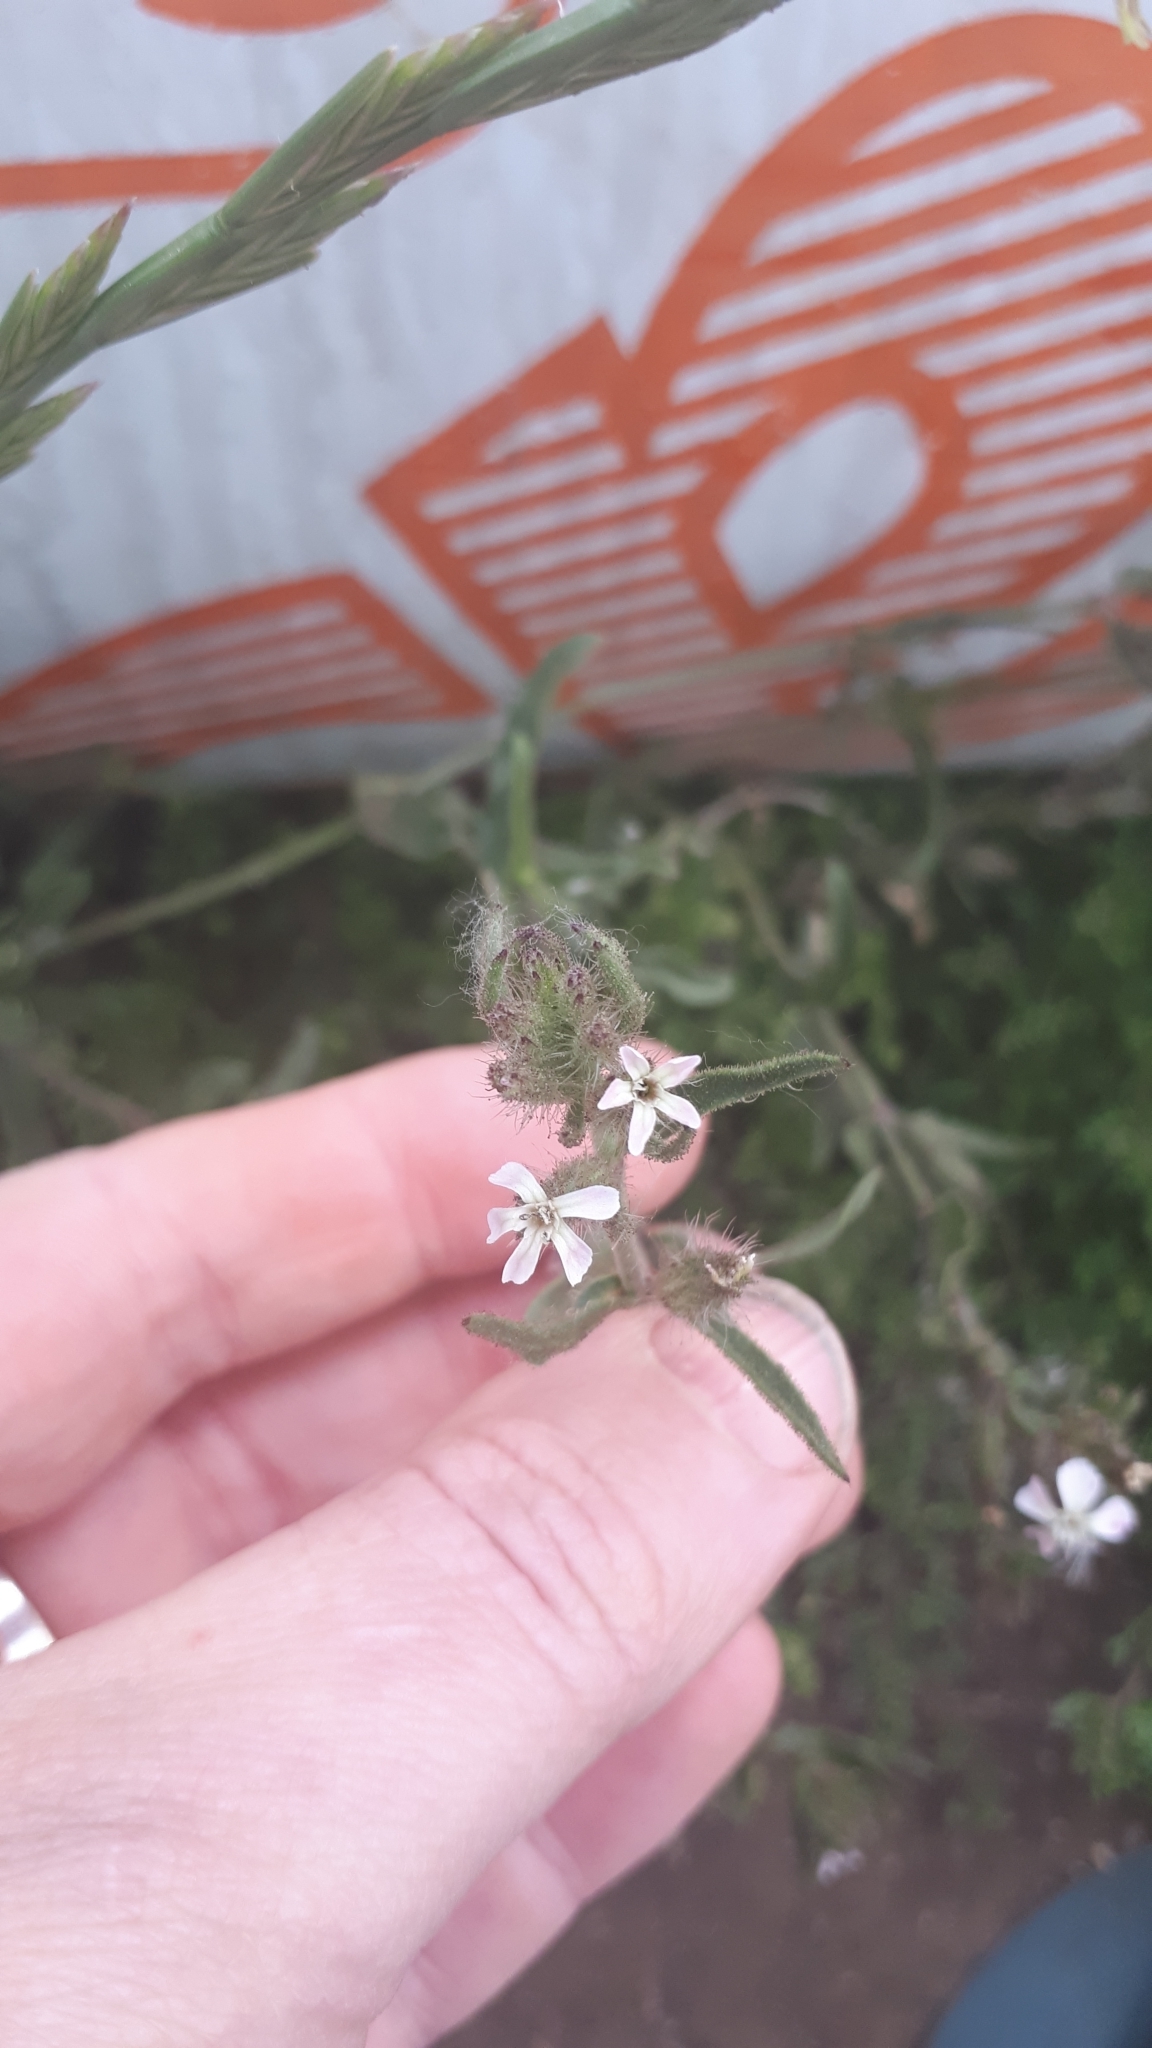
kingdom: Plantae
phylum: Tracheophyta
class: Magnoliopsida
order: Caryophyllales
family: Caryophyllaceae
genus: Silene
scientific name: Silene gallica
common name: Small-flowered catchfly
